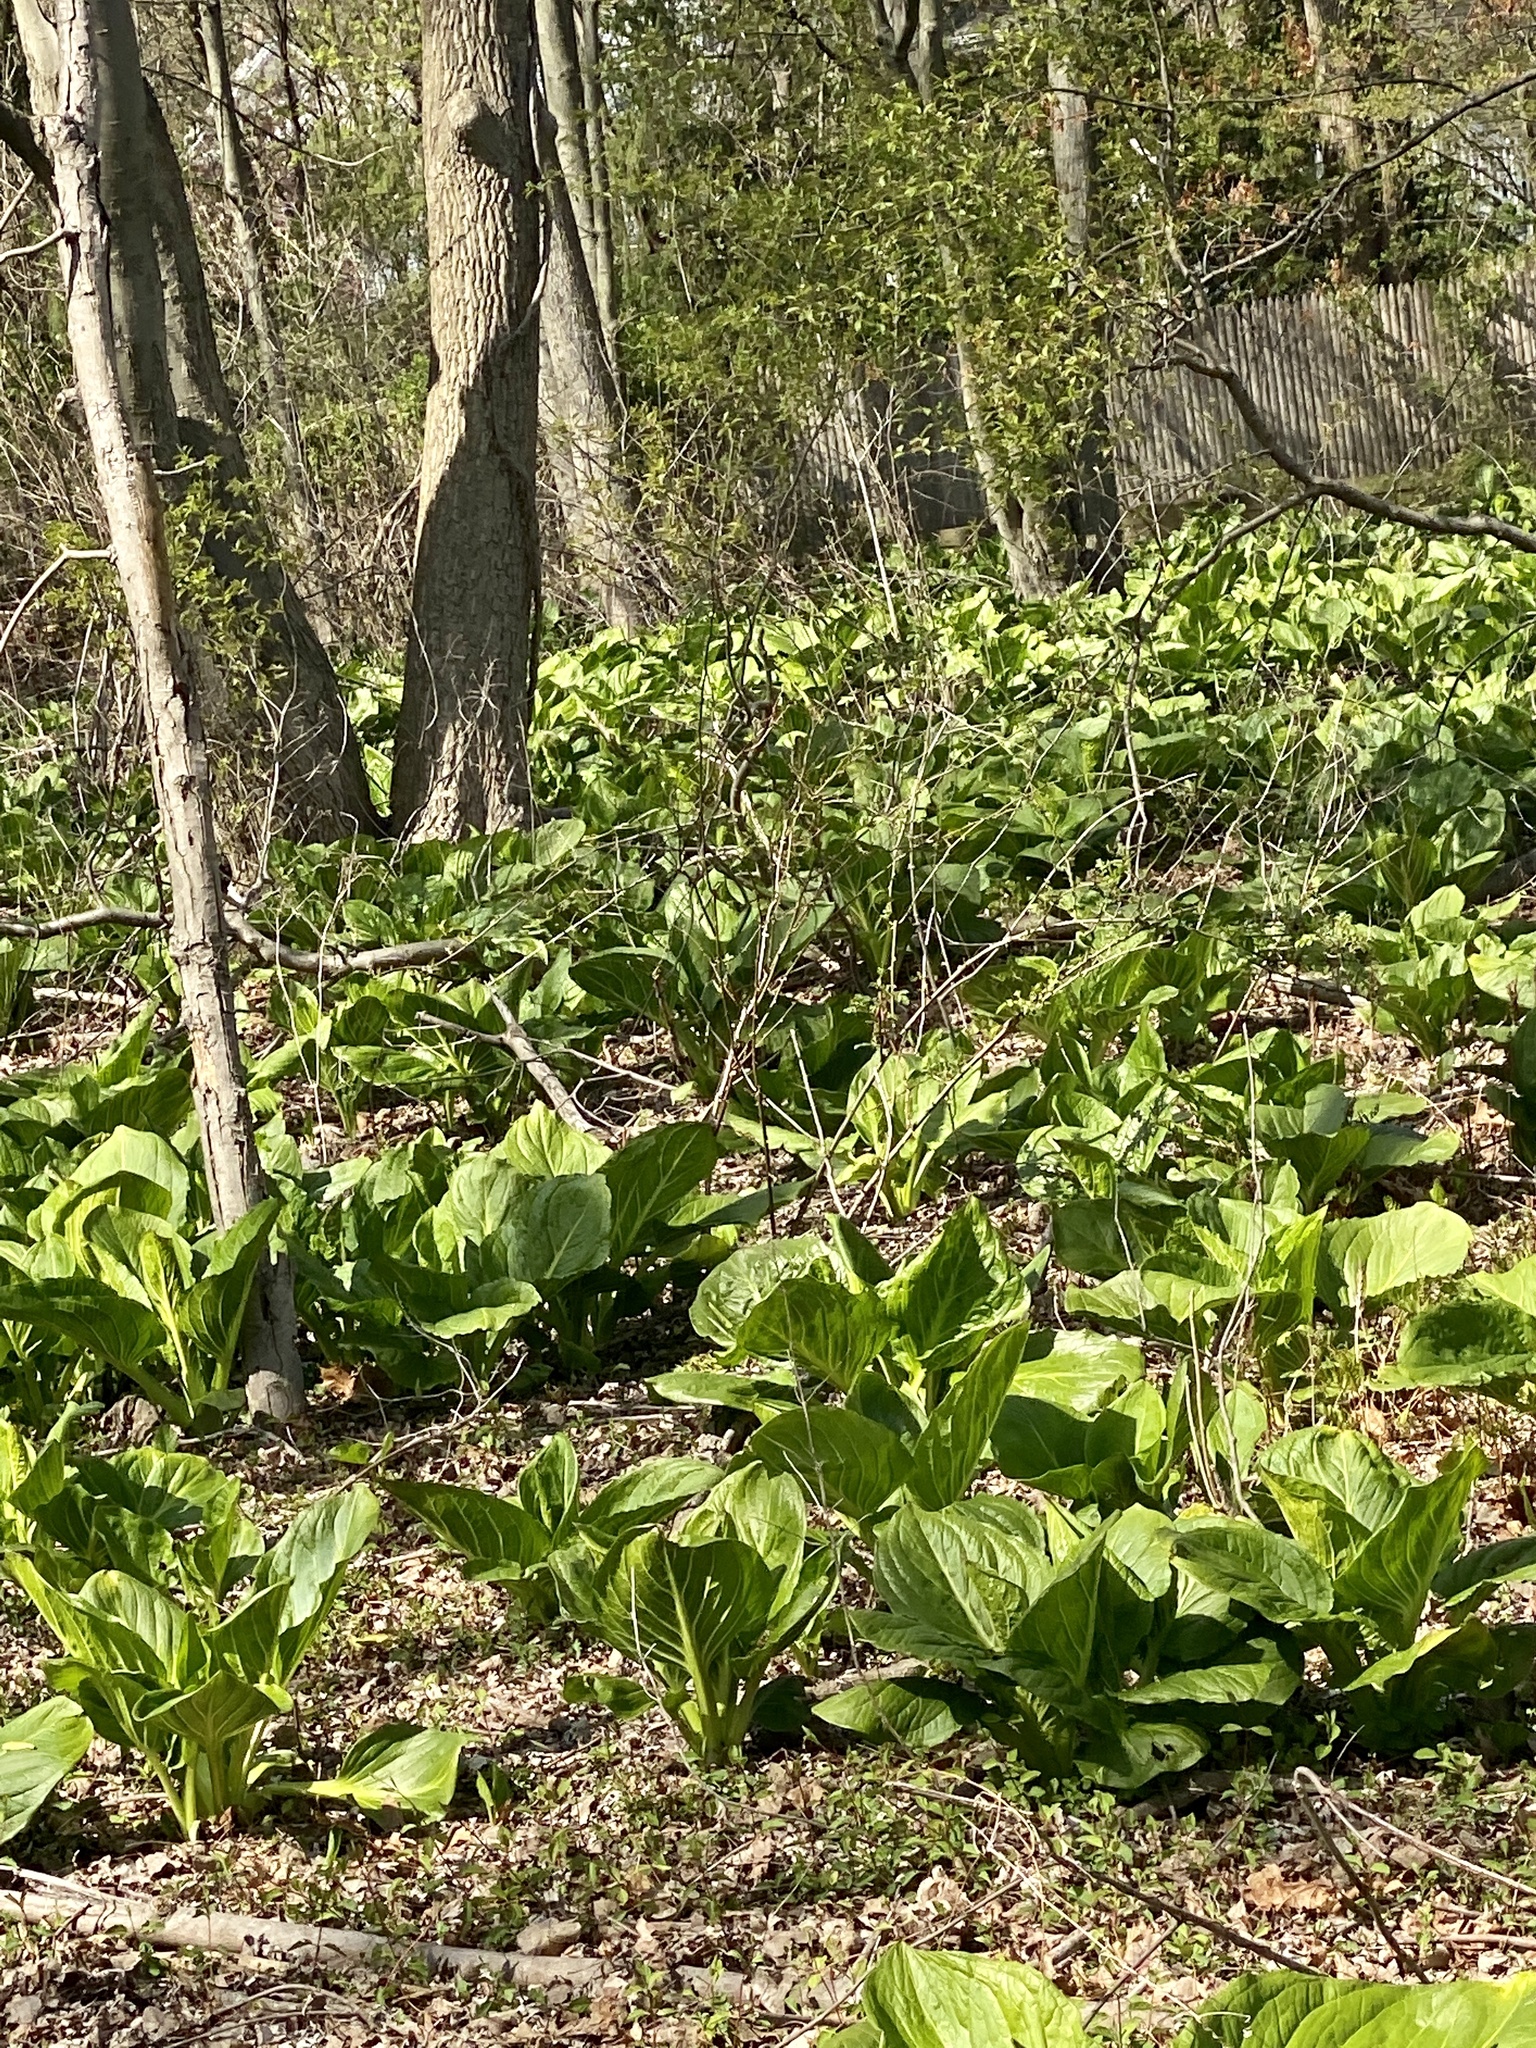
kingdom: Plantae
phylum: Tracheophyta
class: Liliopsida
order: Alismatales
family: Araceae
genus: Symplocarpus
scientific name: Symplocarpus foetidus
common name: Eastern skunk cabbage
